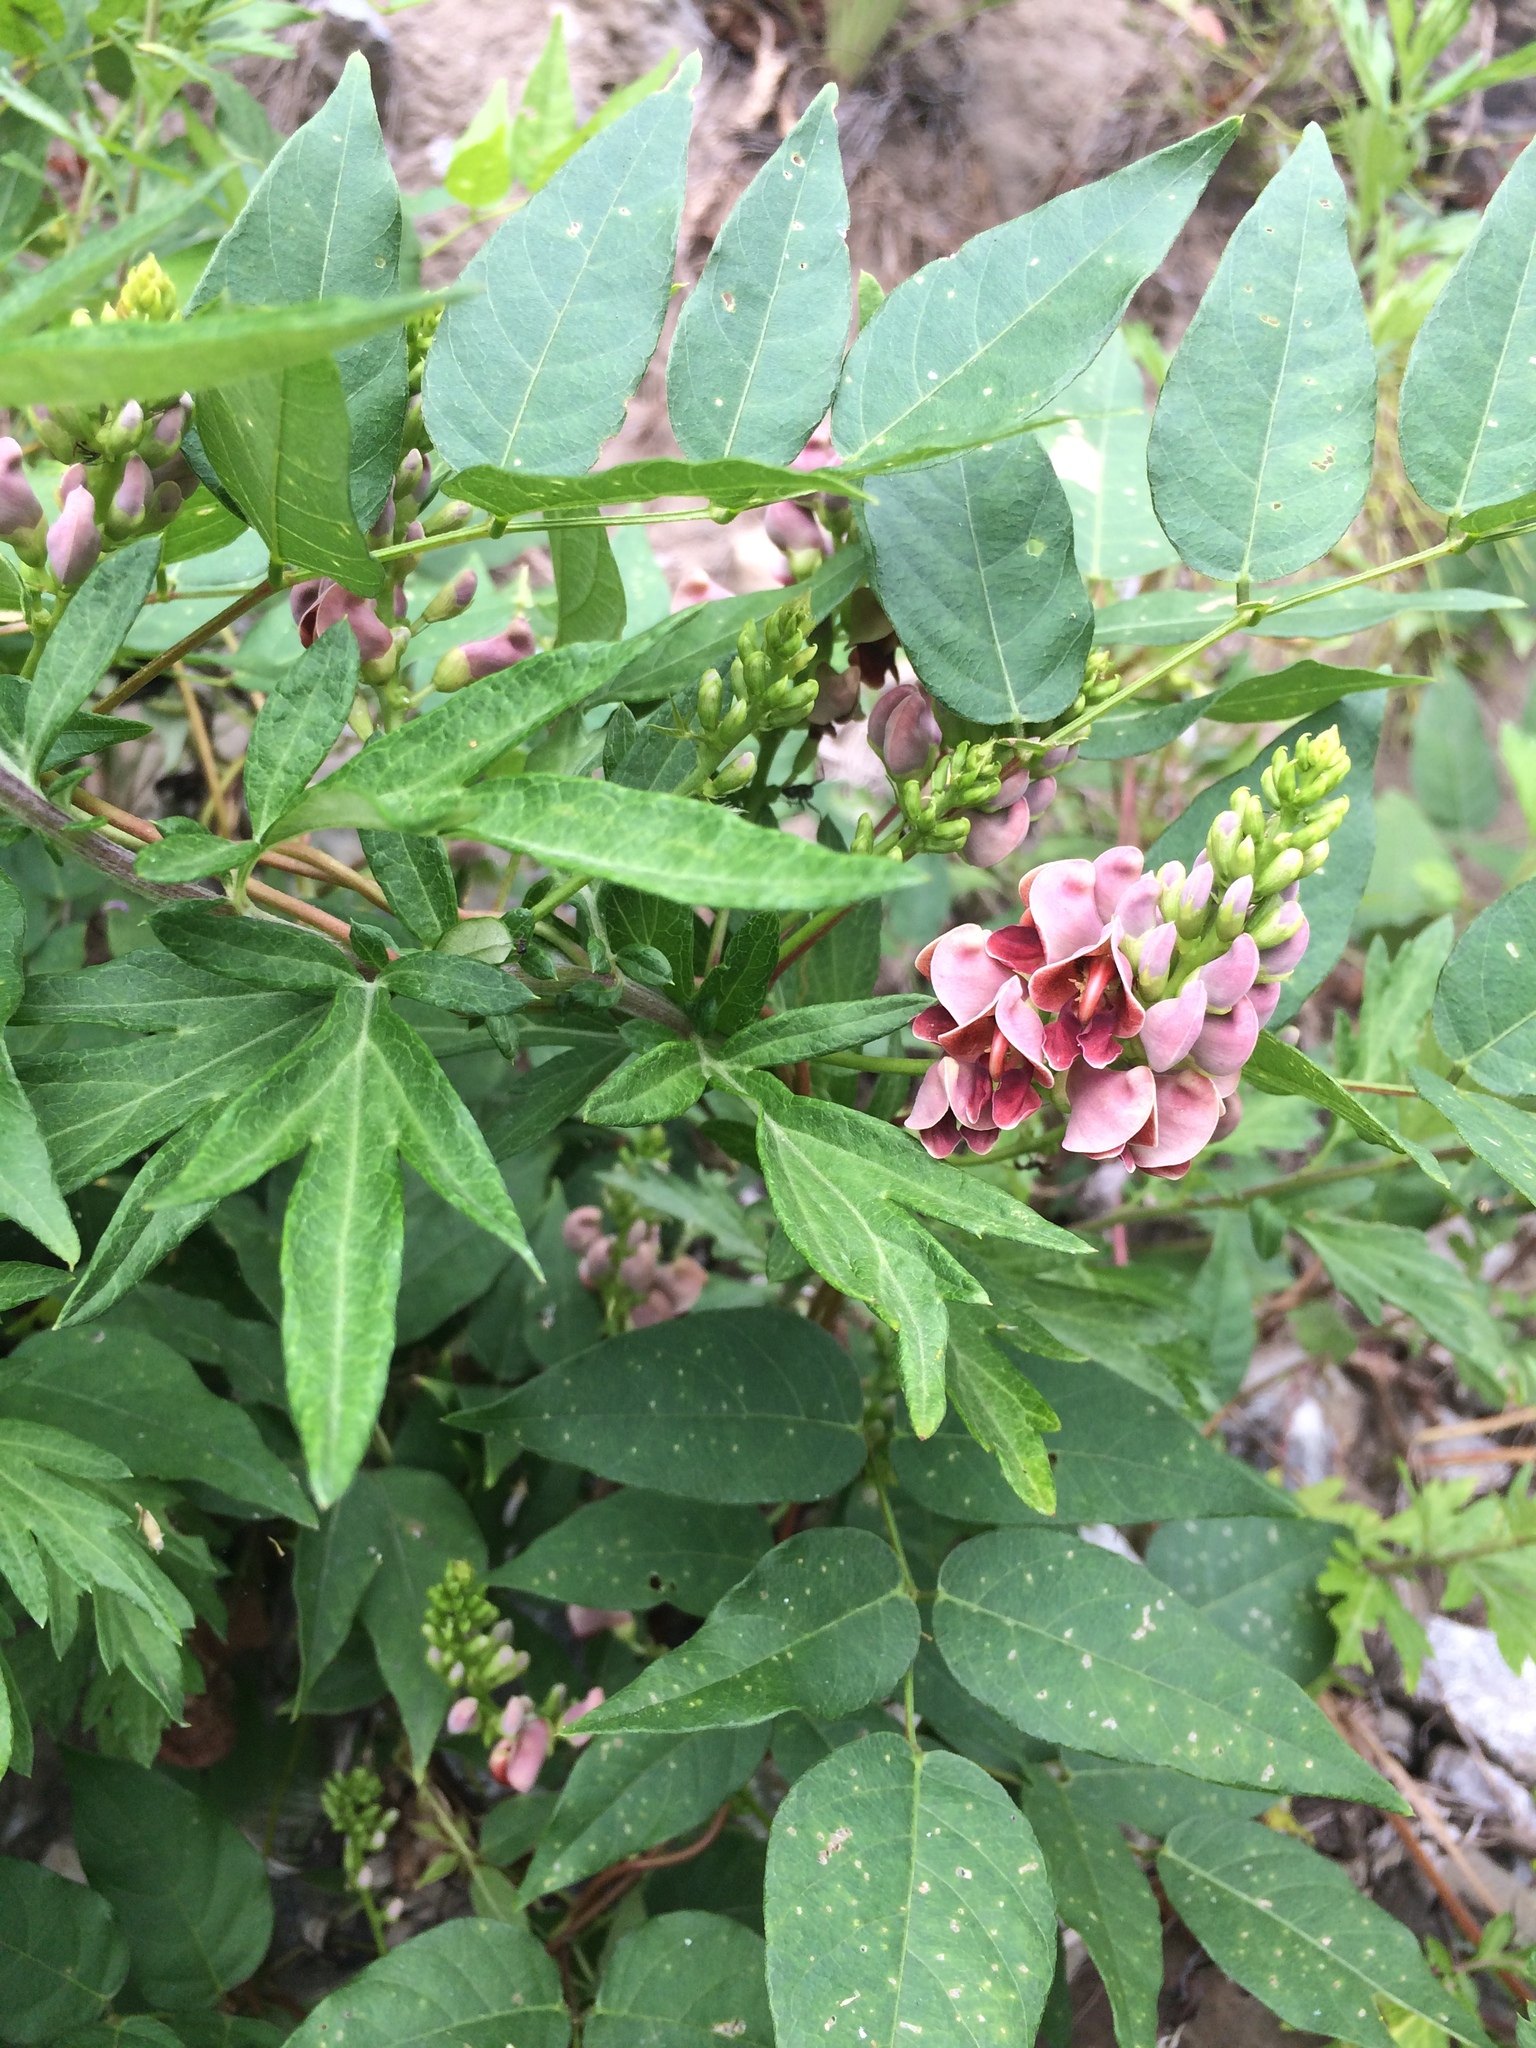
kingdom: Plantae
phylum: Tracheophyta
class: Magnoliopsida
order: Fabales
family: Fabaceae
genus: Apios
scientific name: Apios americana
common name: American potato-bean
